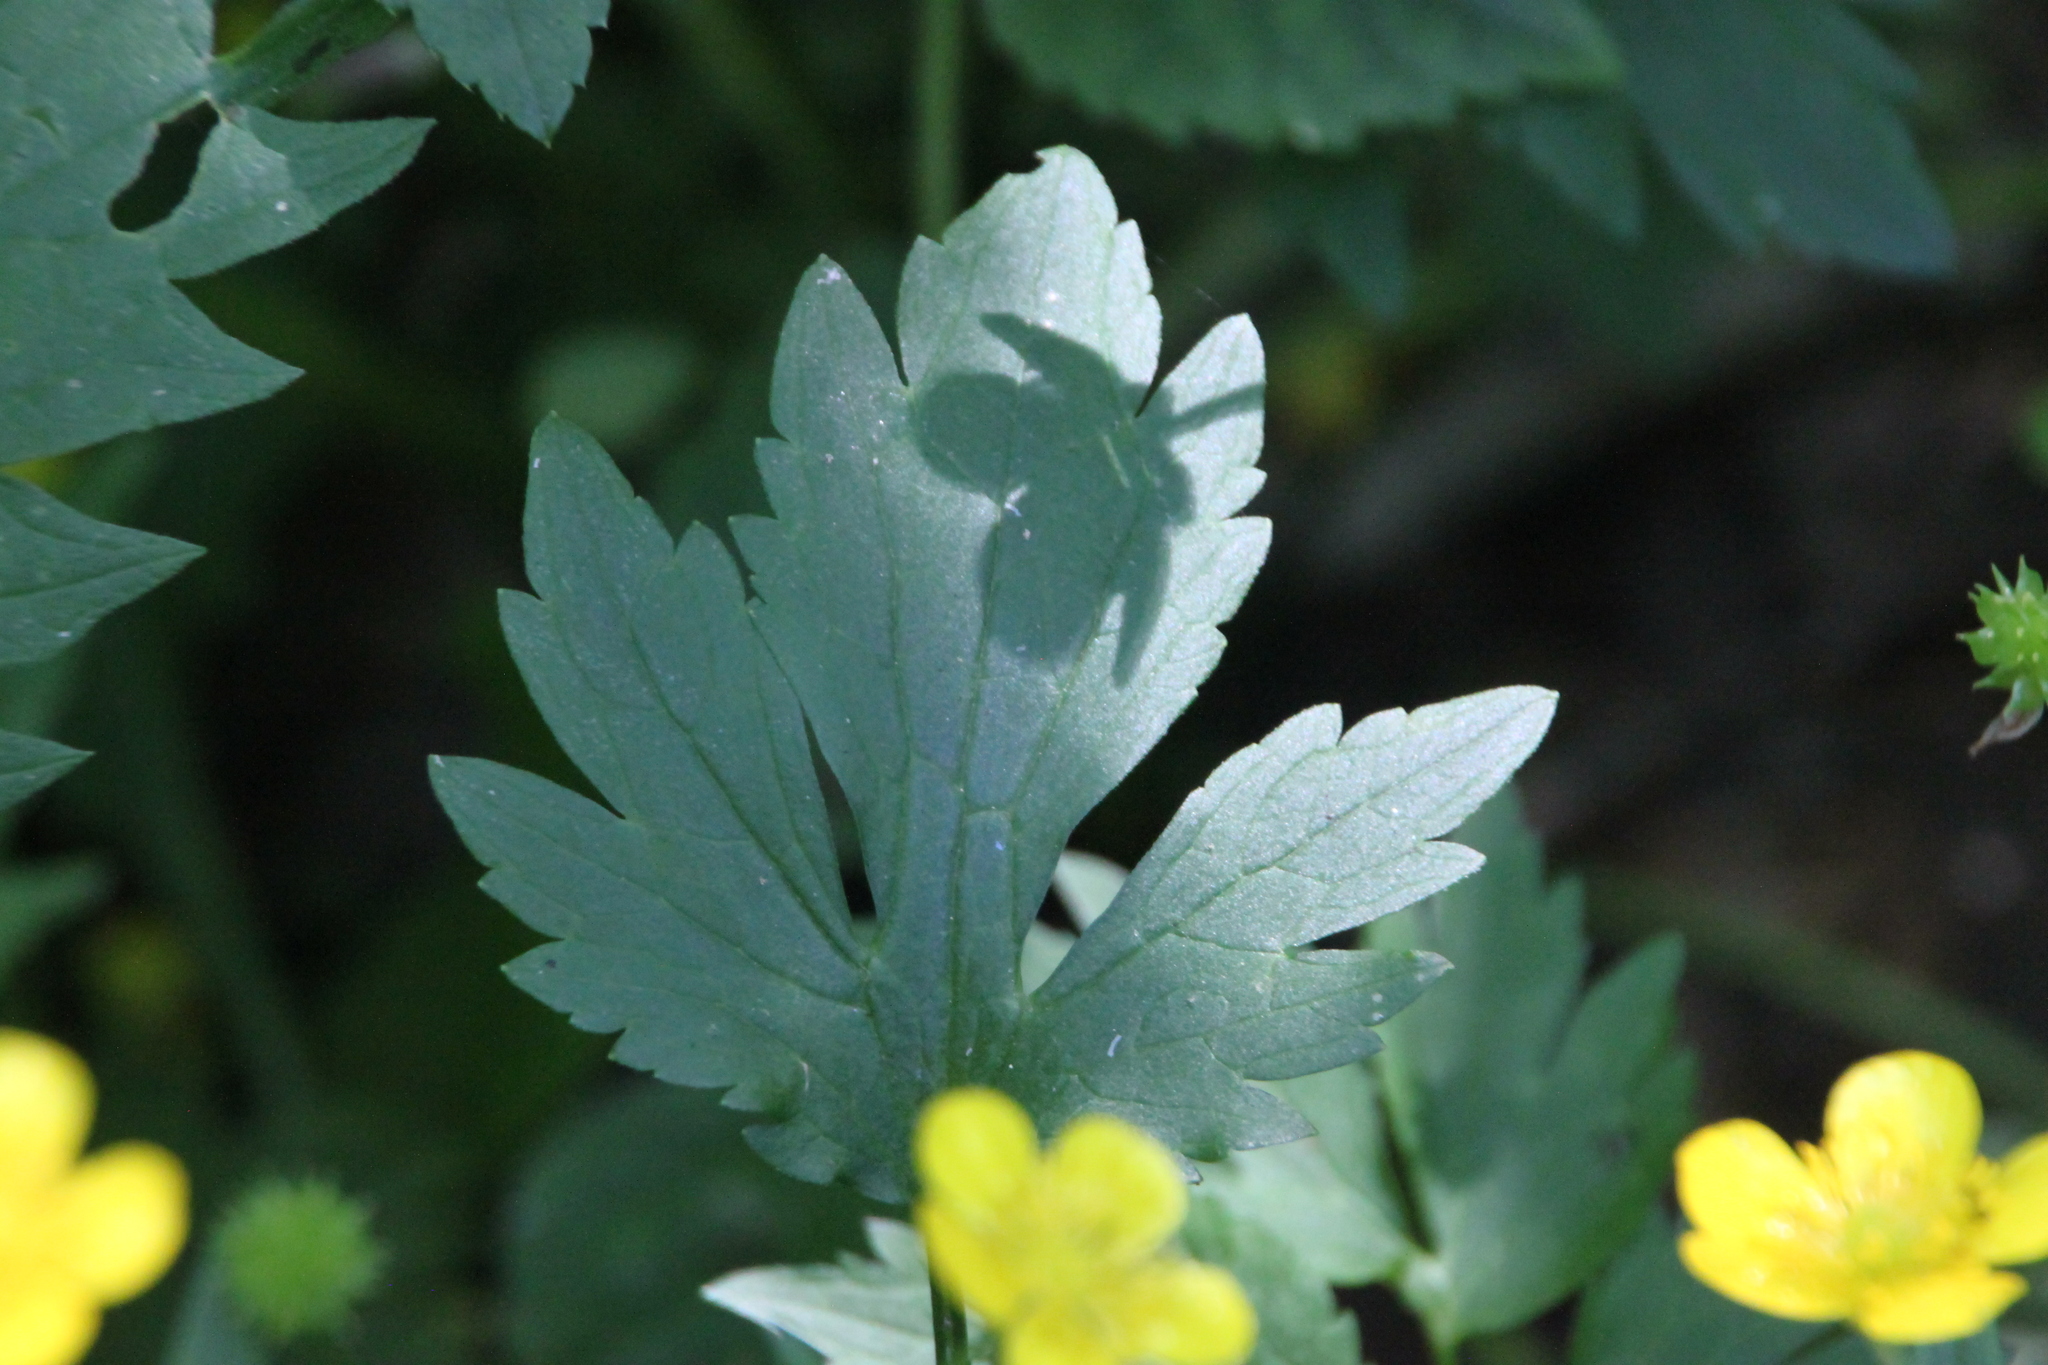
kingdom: Plantae
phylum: Tracheophyta
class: Magnoliopsida
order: Ranunculales
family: Ranunculaceae
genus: Ranunculus
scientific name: Ranunculus repens
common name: Creeping buttercup
